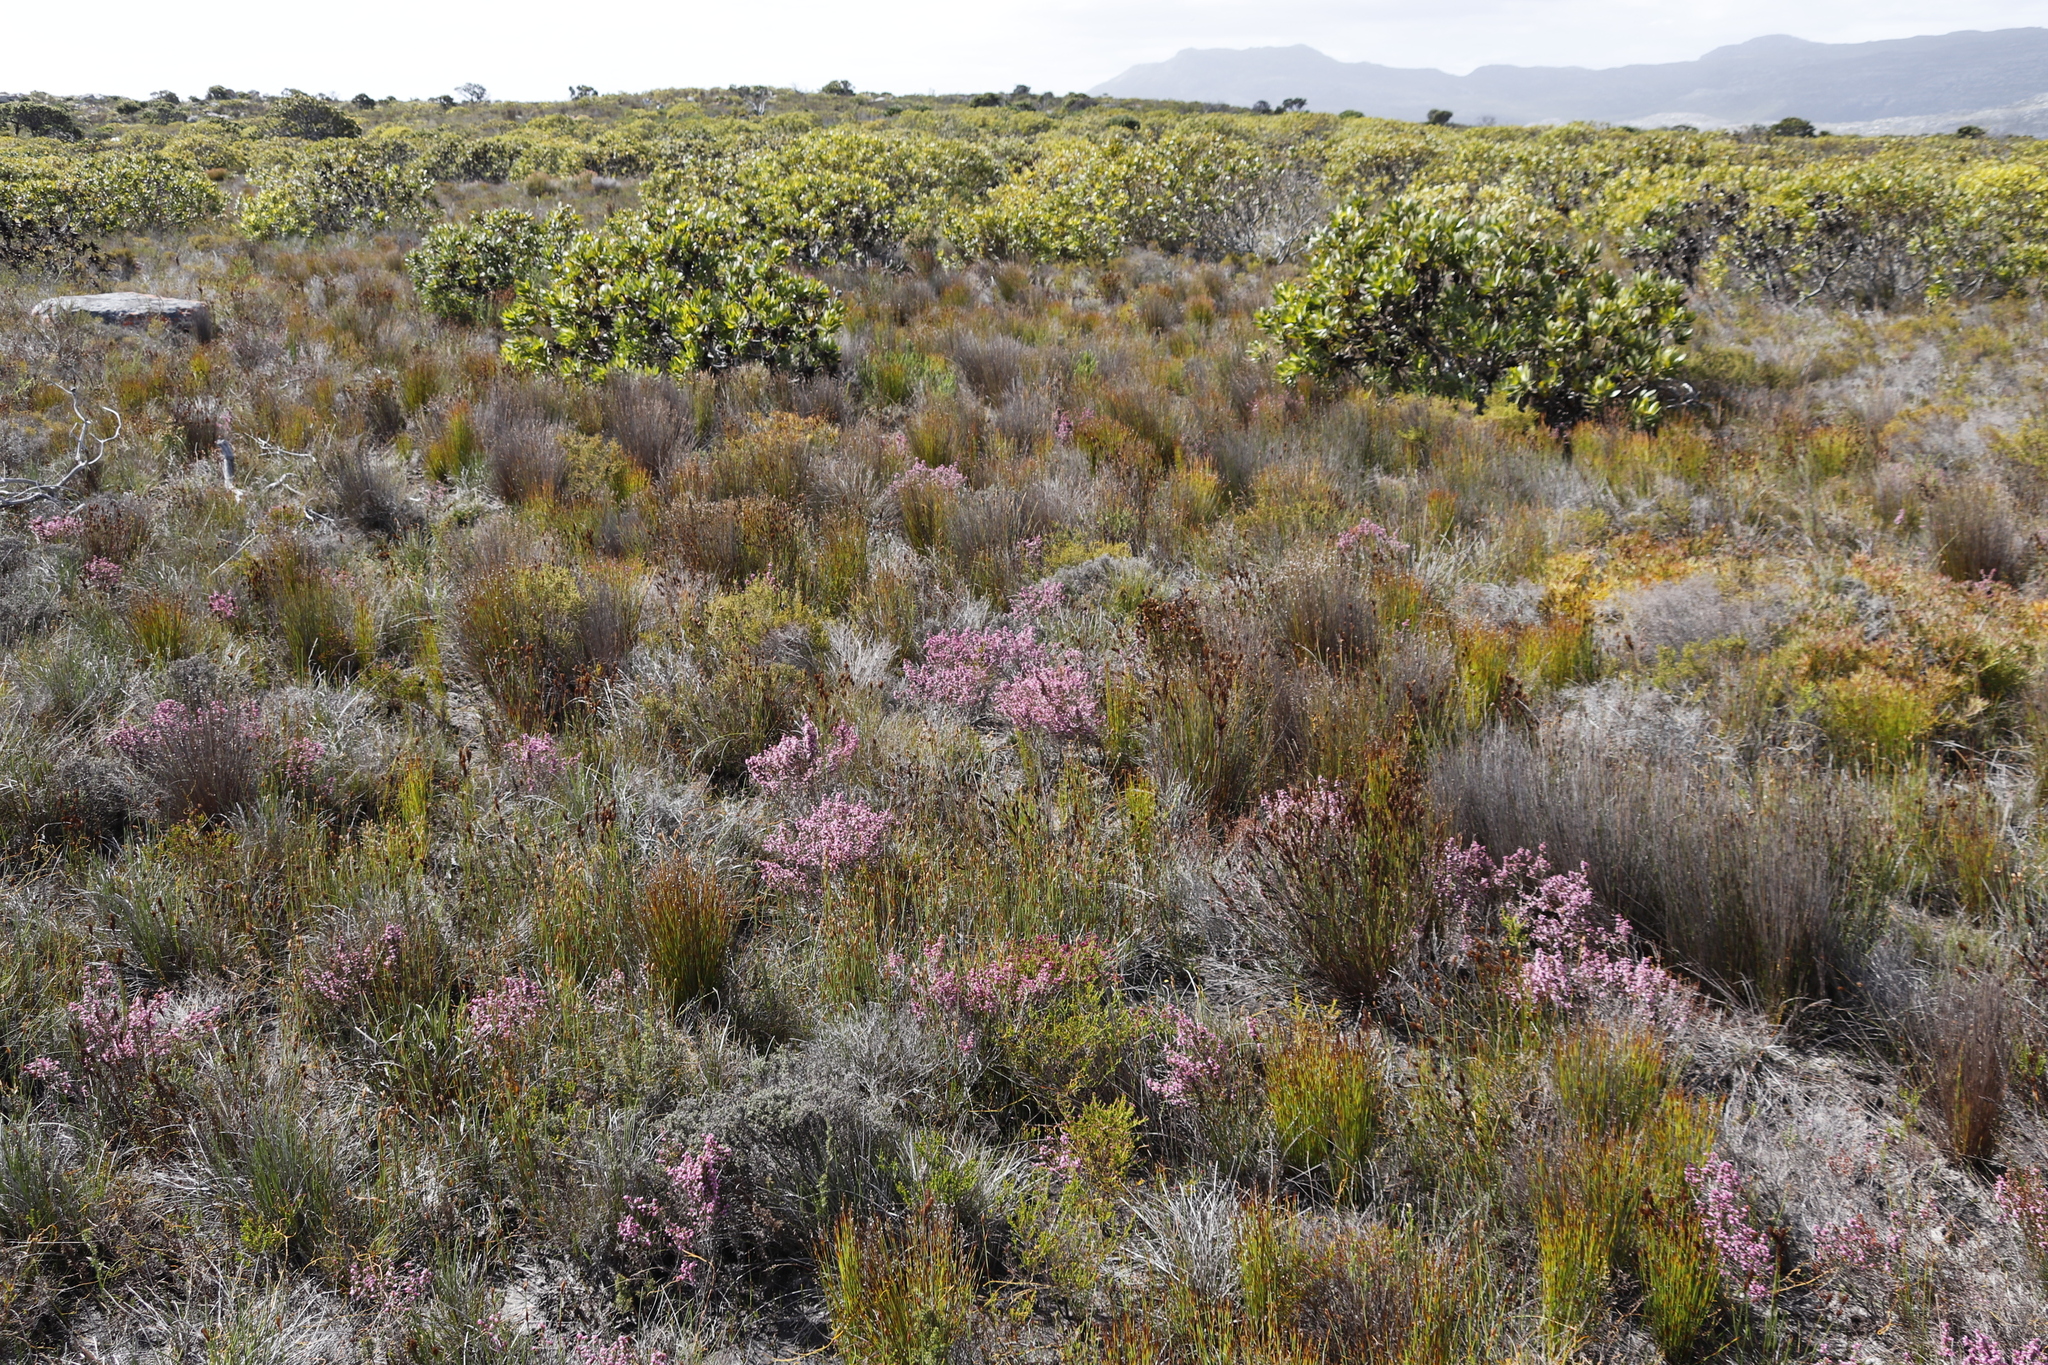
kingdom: Plantae
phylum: Tracheophyta
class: Magnoliopsida
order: Ericales
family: Ericaceae
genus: Erica
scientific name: Erica gnaphaloides
